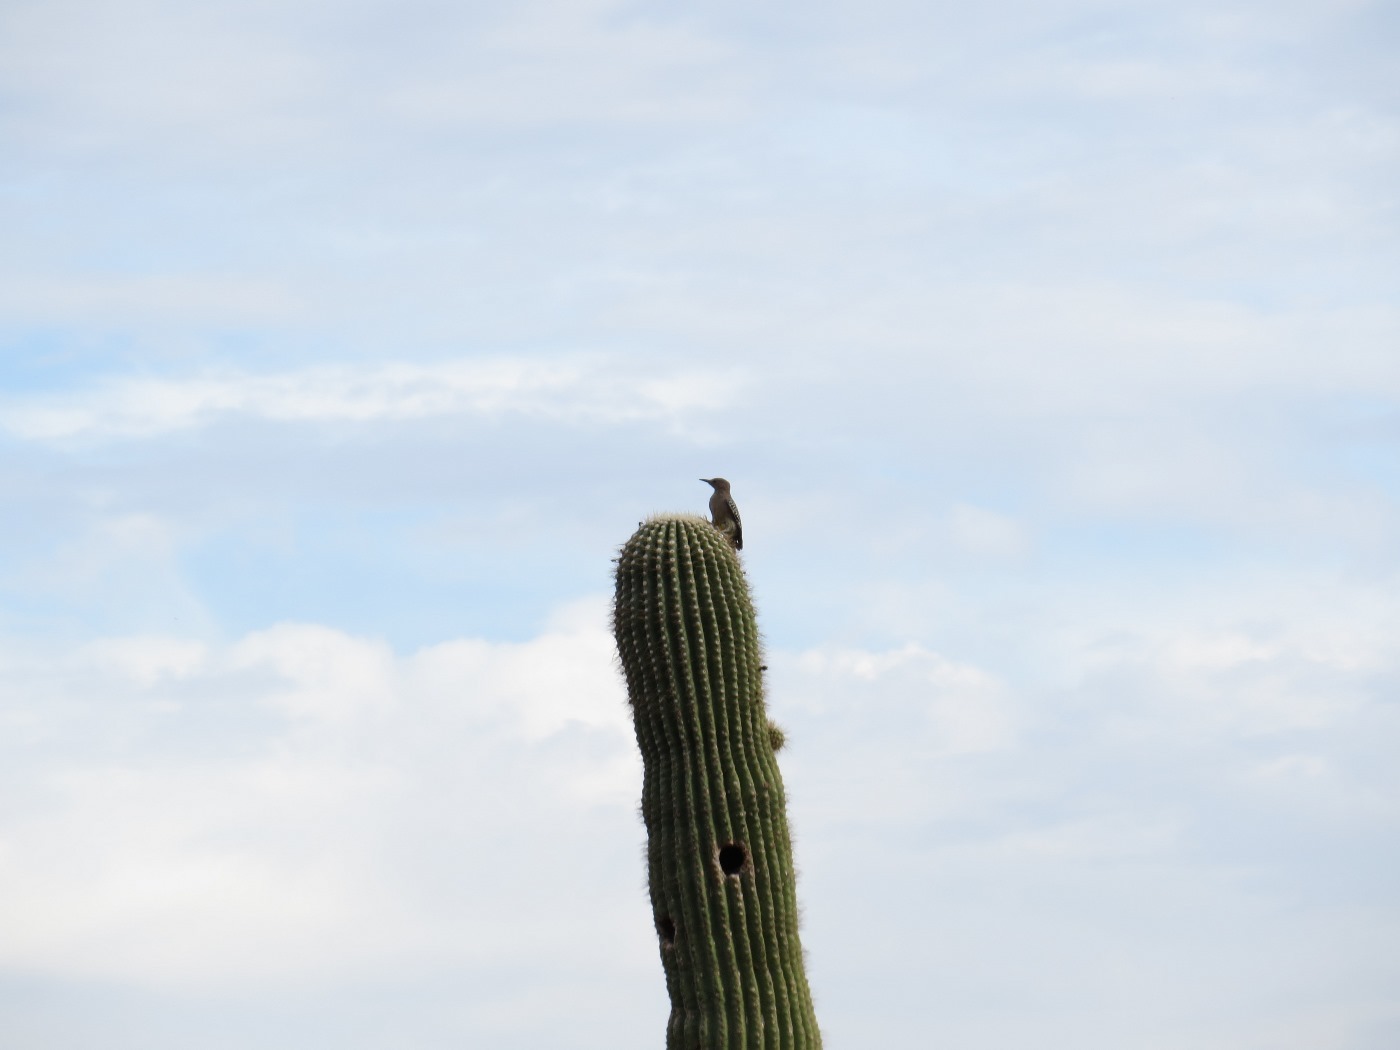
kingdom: Animalia
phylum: Chordata
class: Aves
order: Piciformes
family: Picidae
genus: Melanerpes
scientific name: Melanerpes uropygialis
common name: Gila woodpecker
